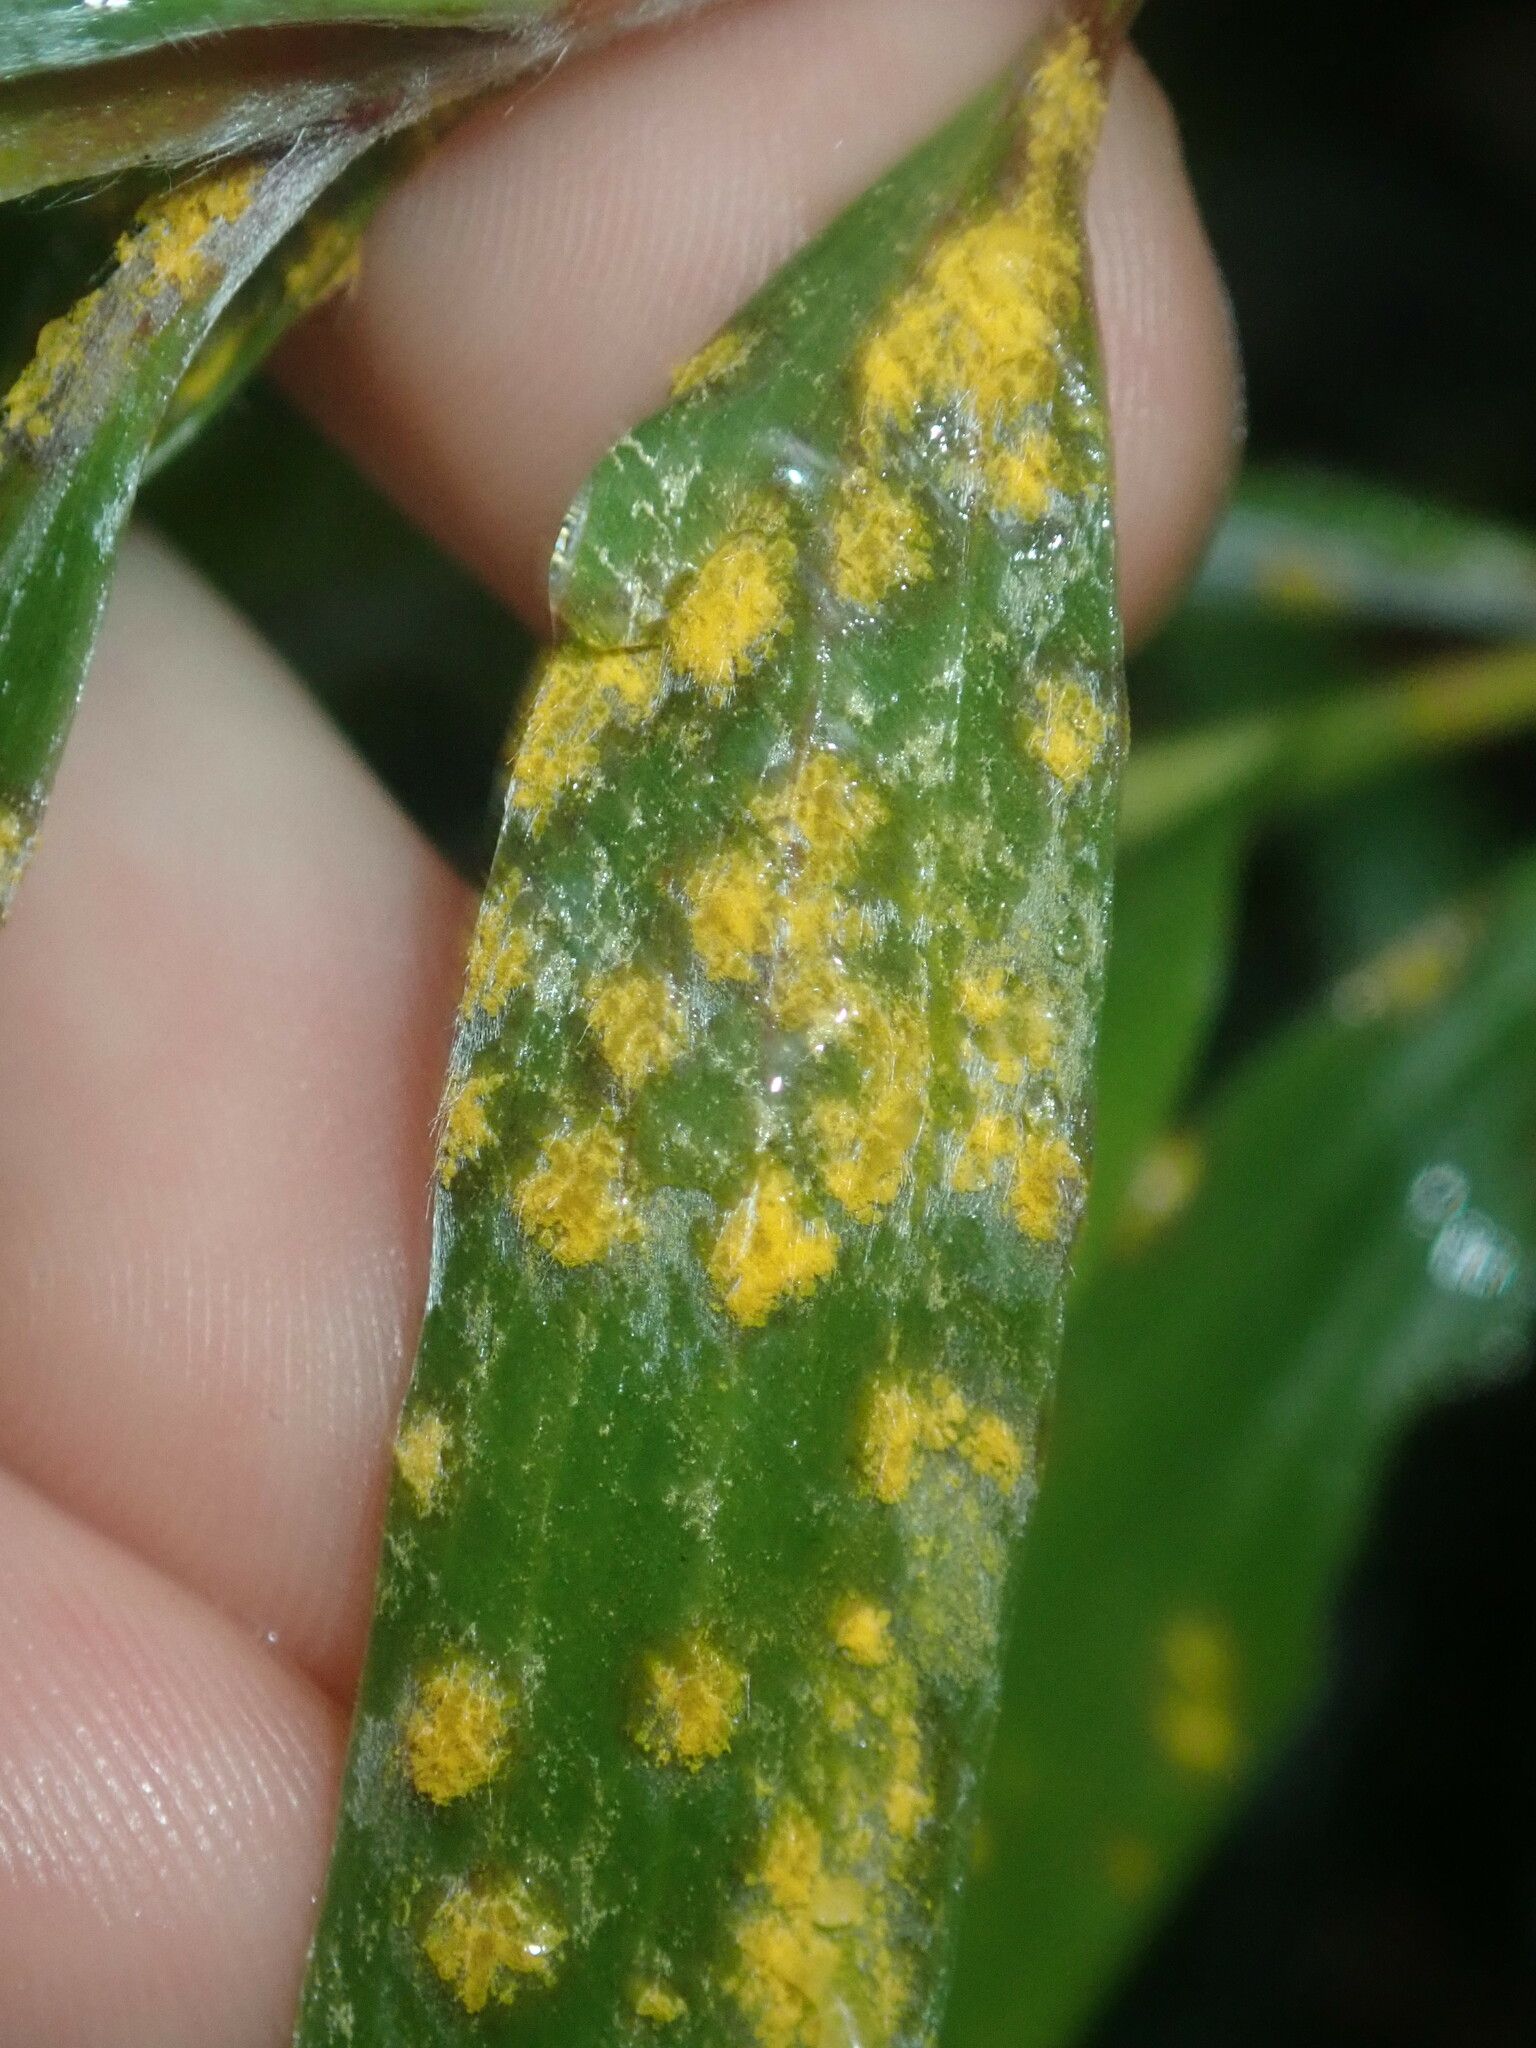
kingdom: Fungi
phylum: Basidiomycota
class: Pucciniomycetes
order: Pucciniales
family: Sphaerophragmiaceae
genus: Austropuccinia
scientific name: Austropuccinia psidii
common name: Myrtle rust
